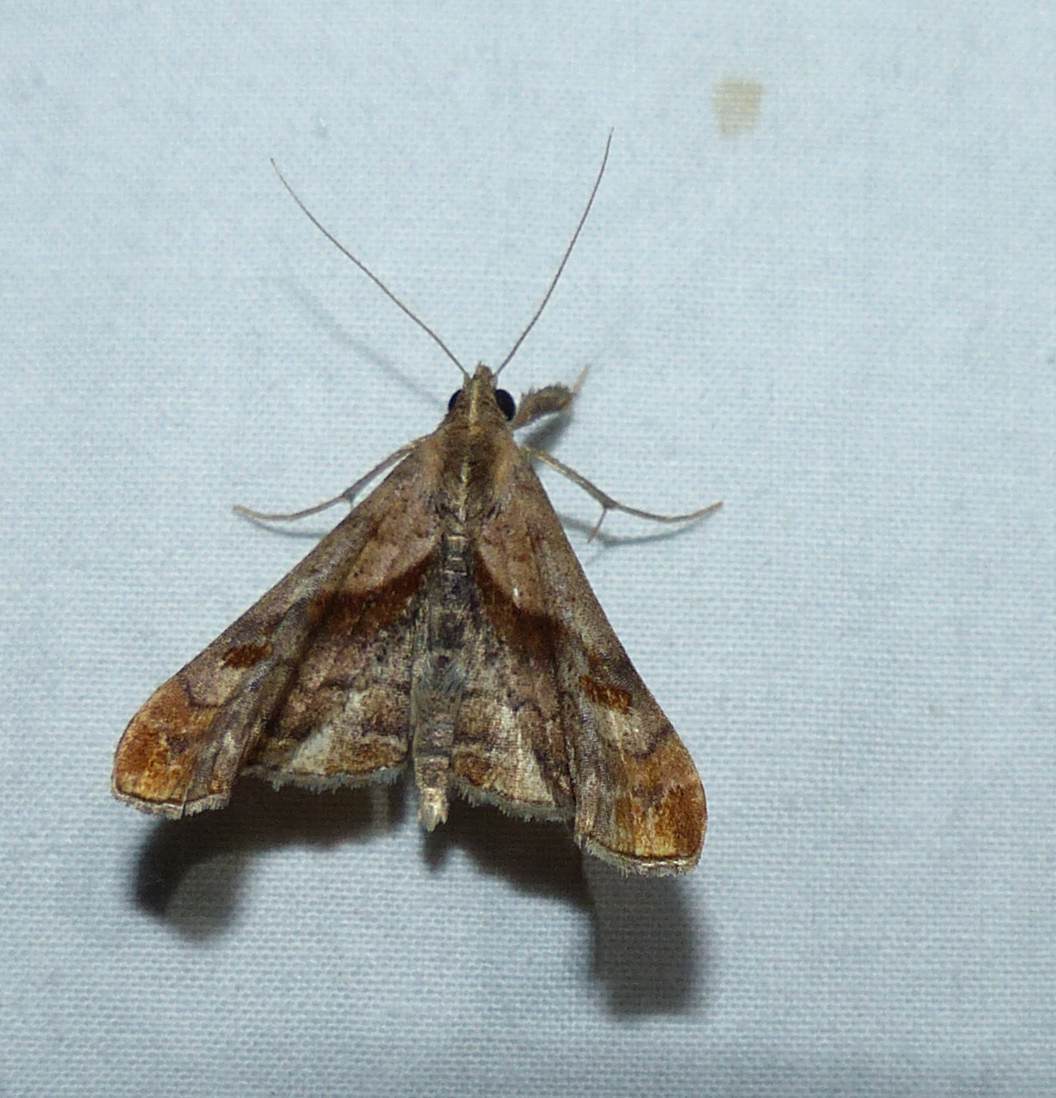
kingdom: Animalia
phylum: Arthropoda
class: Insecta
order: Lepidoptera
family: Erebidae
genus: Palthis
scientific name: Palthis angulalis
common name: Dark-spotted palthis moth
